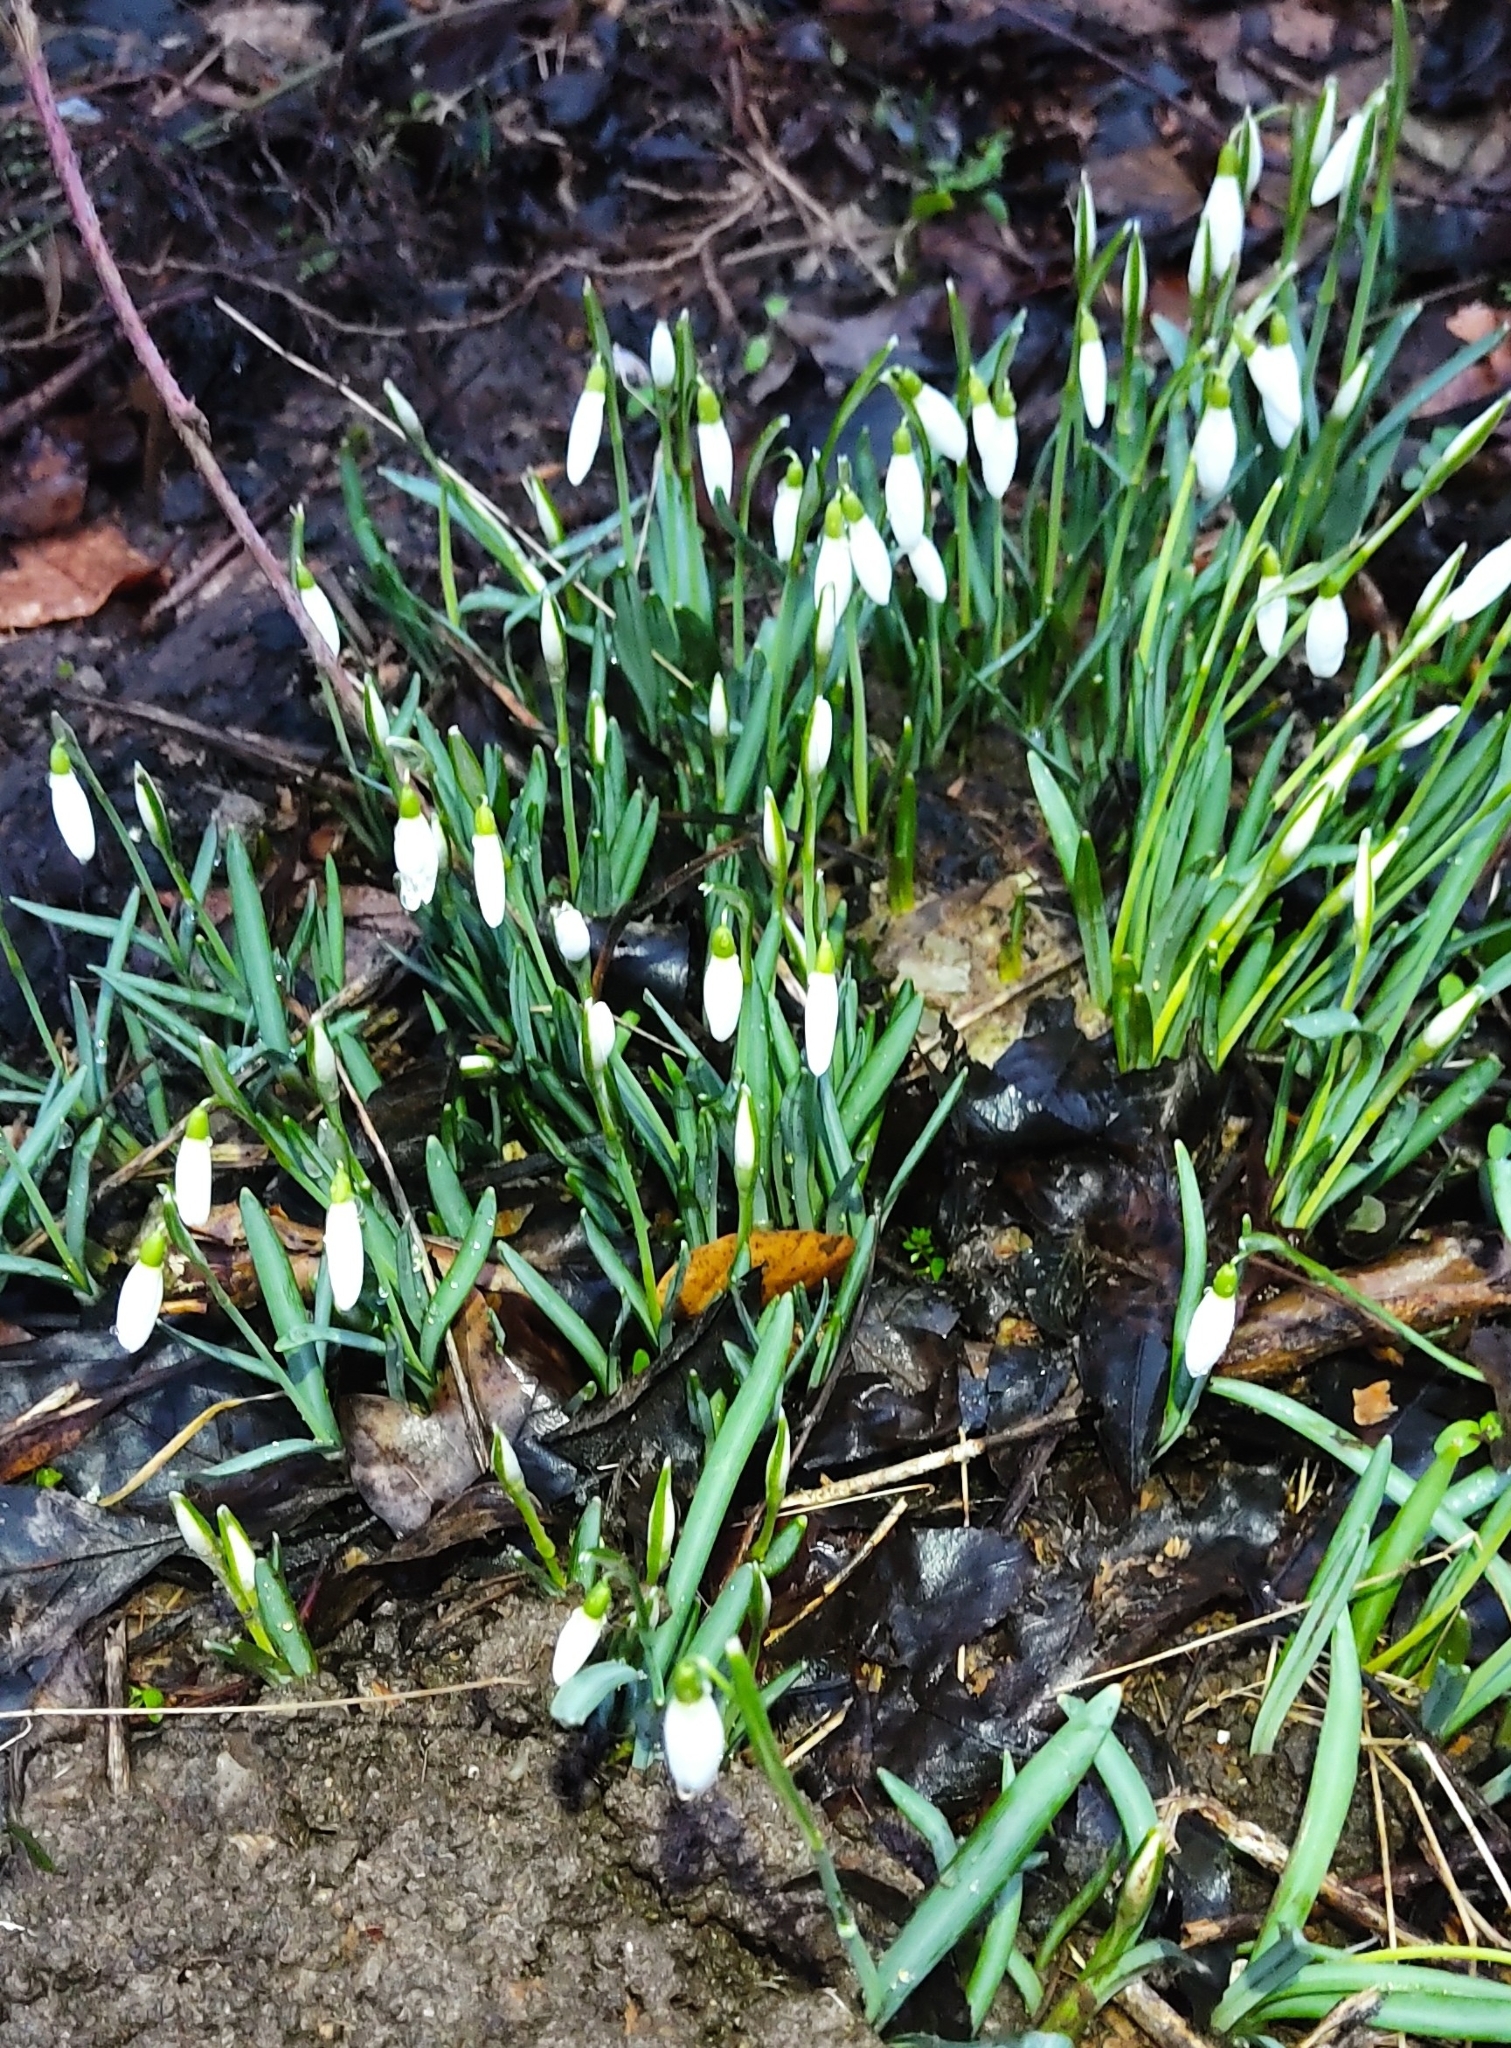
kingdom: Plantae
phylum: Tracheophyta
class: Liliopsida
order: Asparagales
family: Amaryllidaceae
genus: Galanthus
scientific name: Galanthus nivalis
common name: Snowdrop
